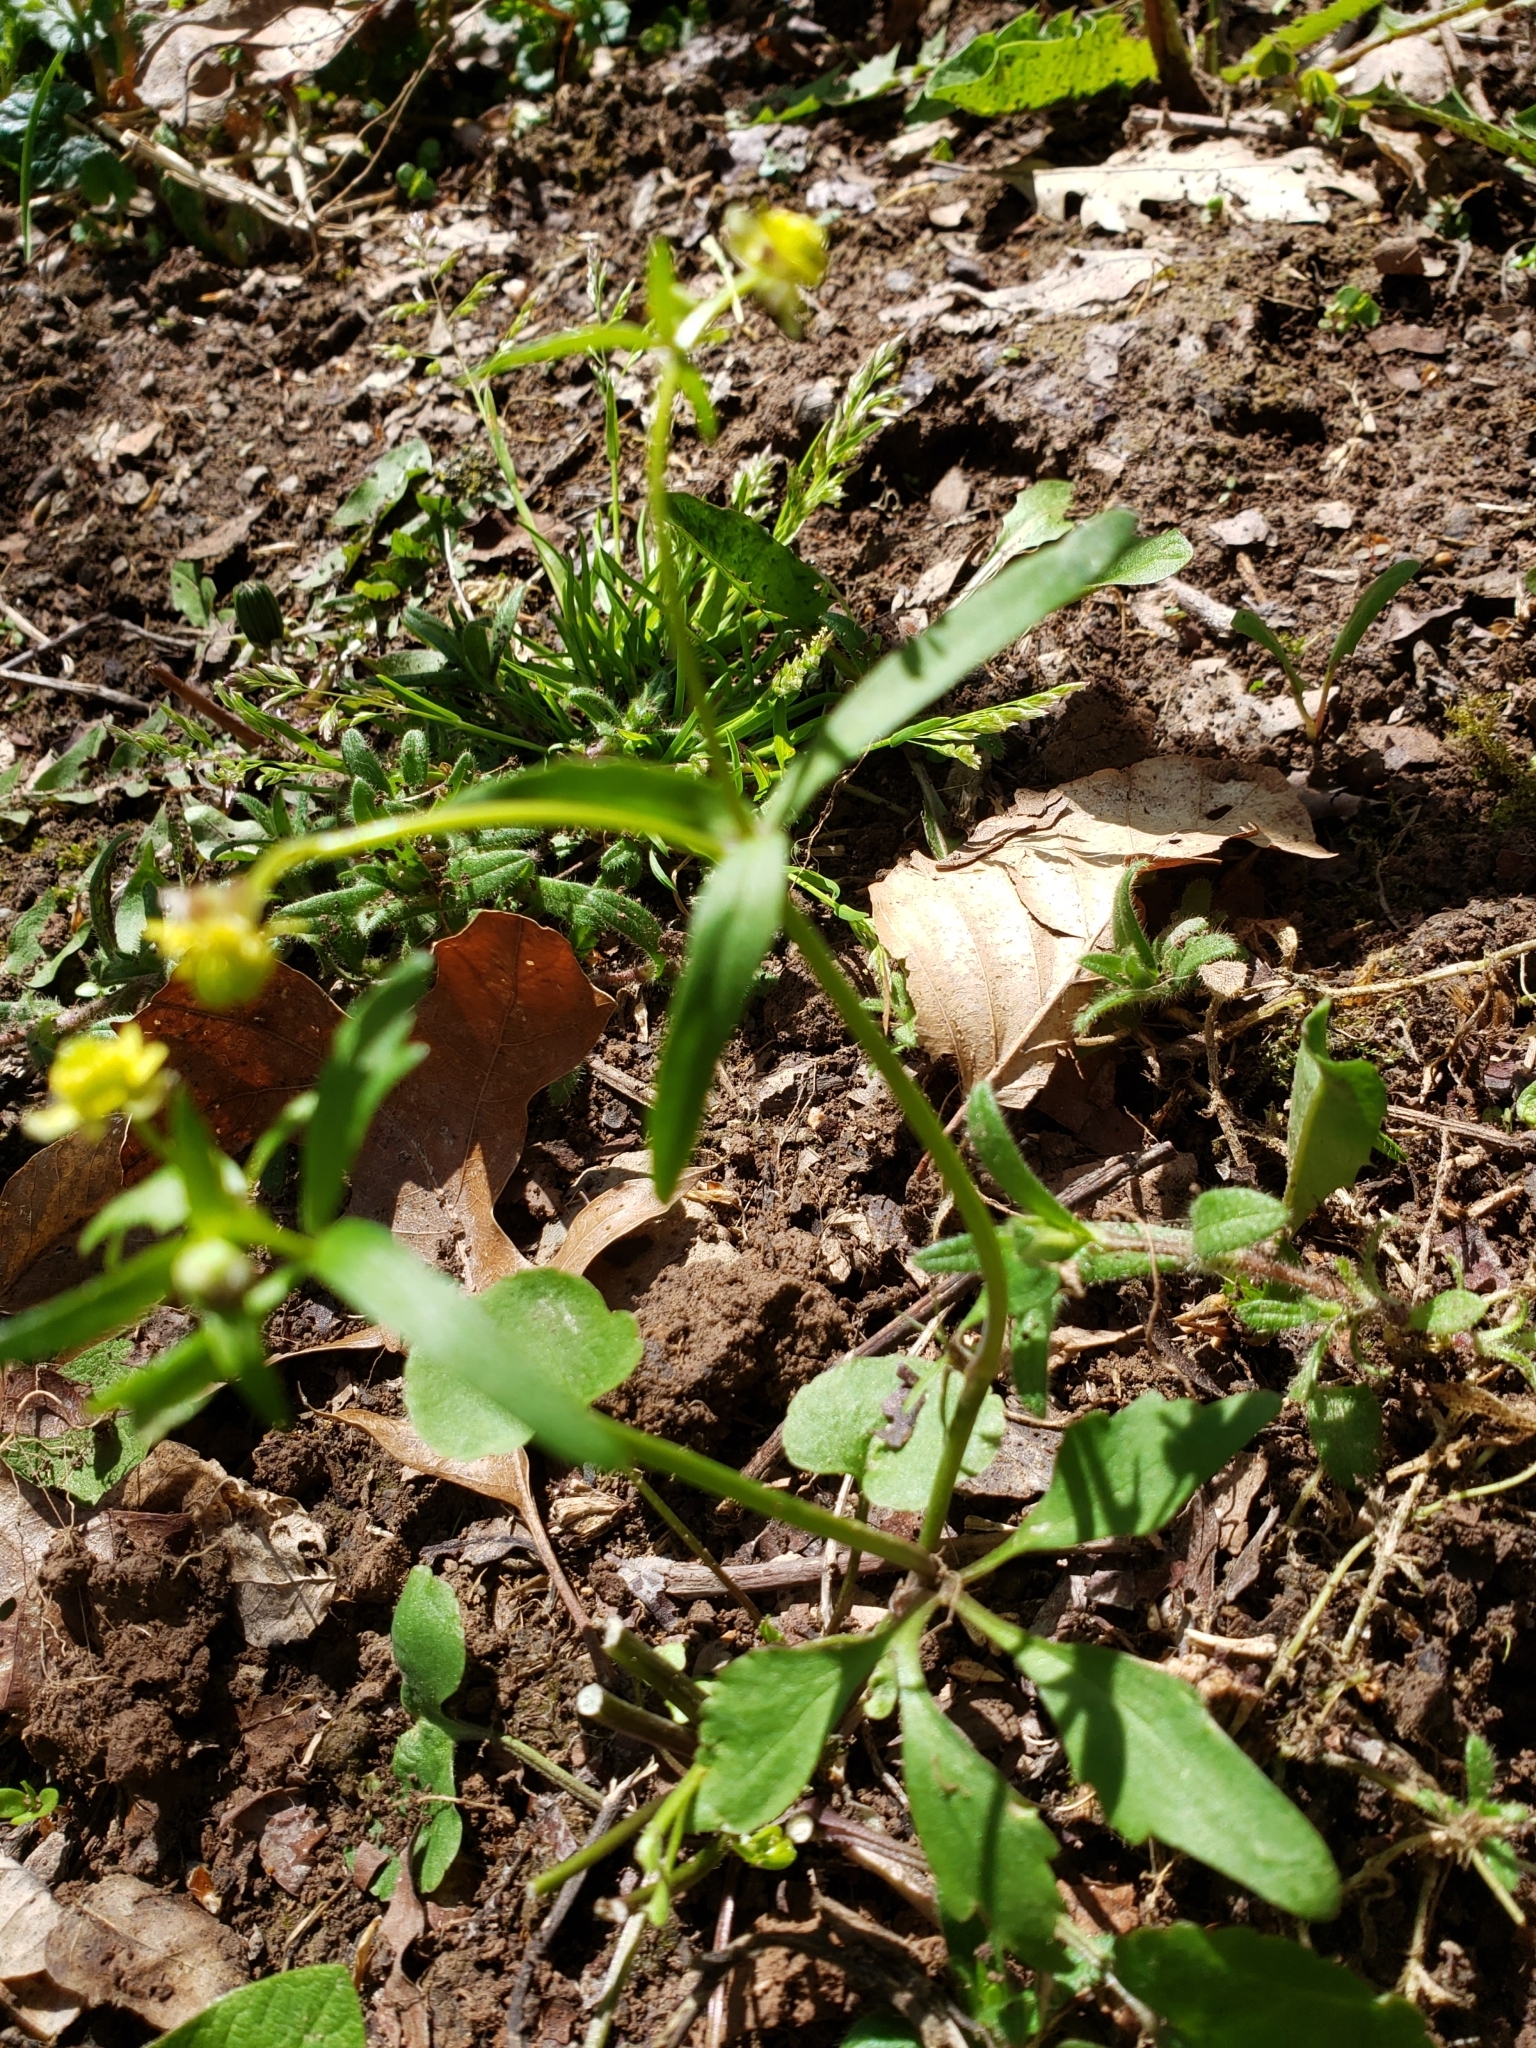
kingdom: Plantae
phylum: Tracheophyta
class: Magnoliopsida
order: Ranunculales
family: Ranunculaceae
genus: Ranunculus
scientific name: Ranunculus abortivus
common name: Early wood buttercup
